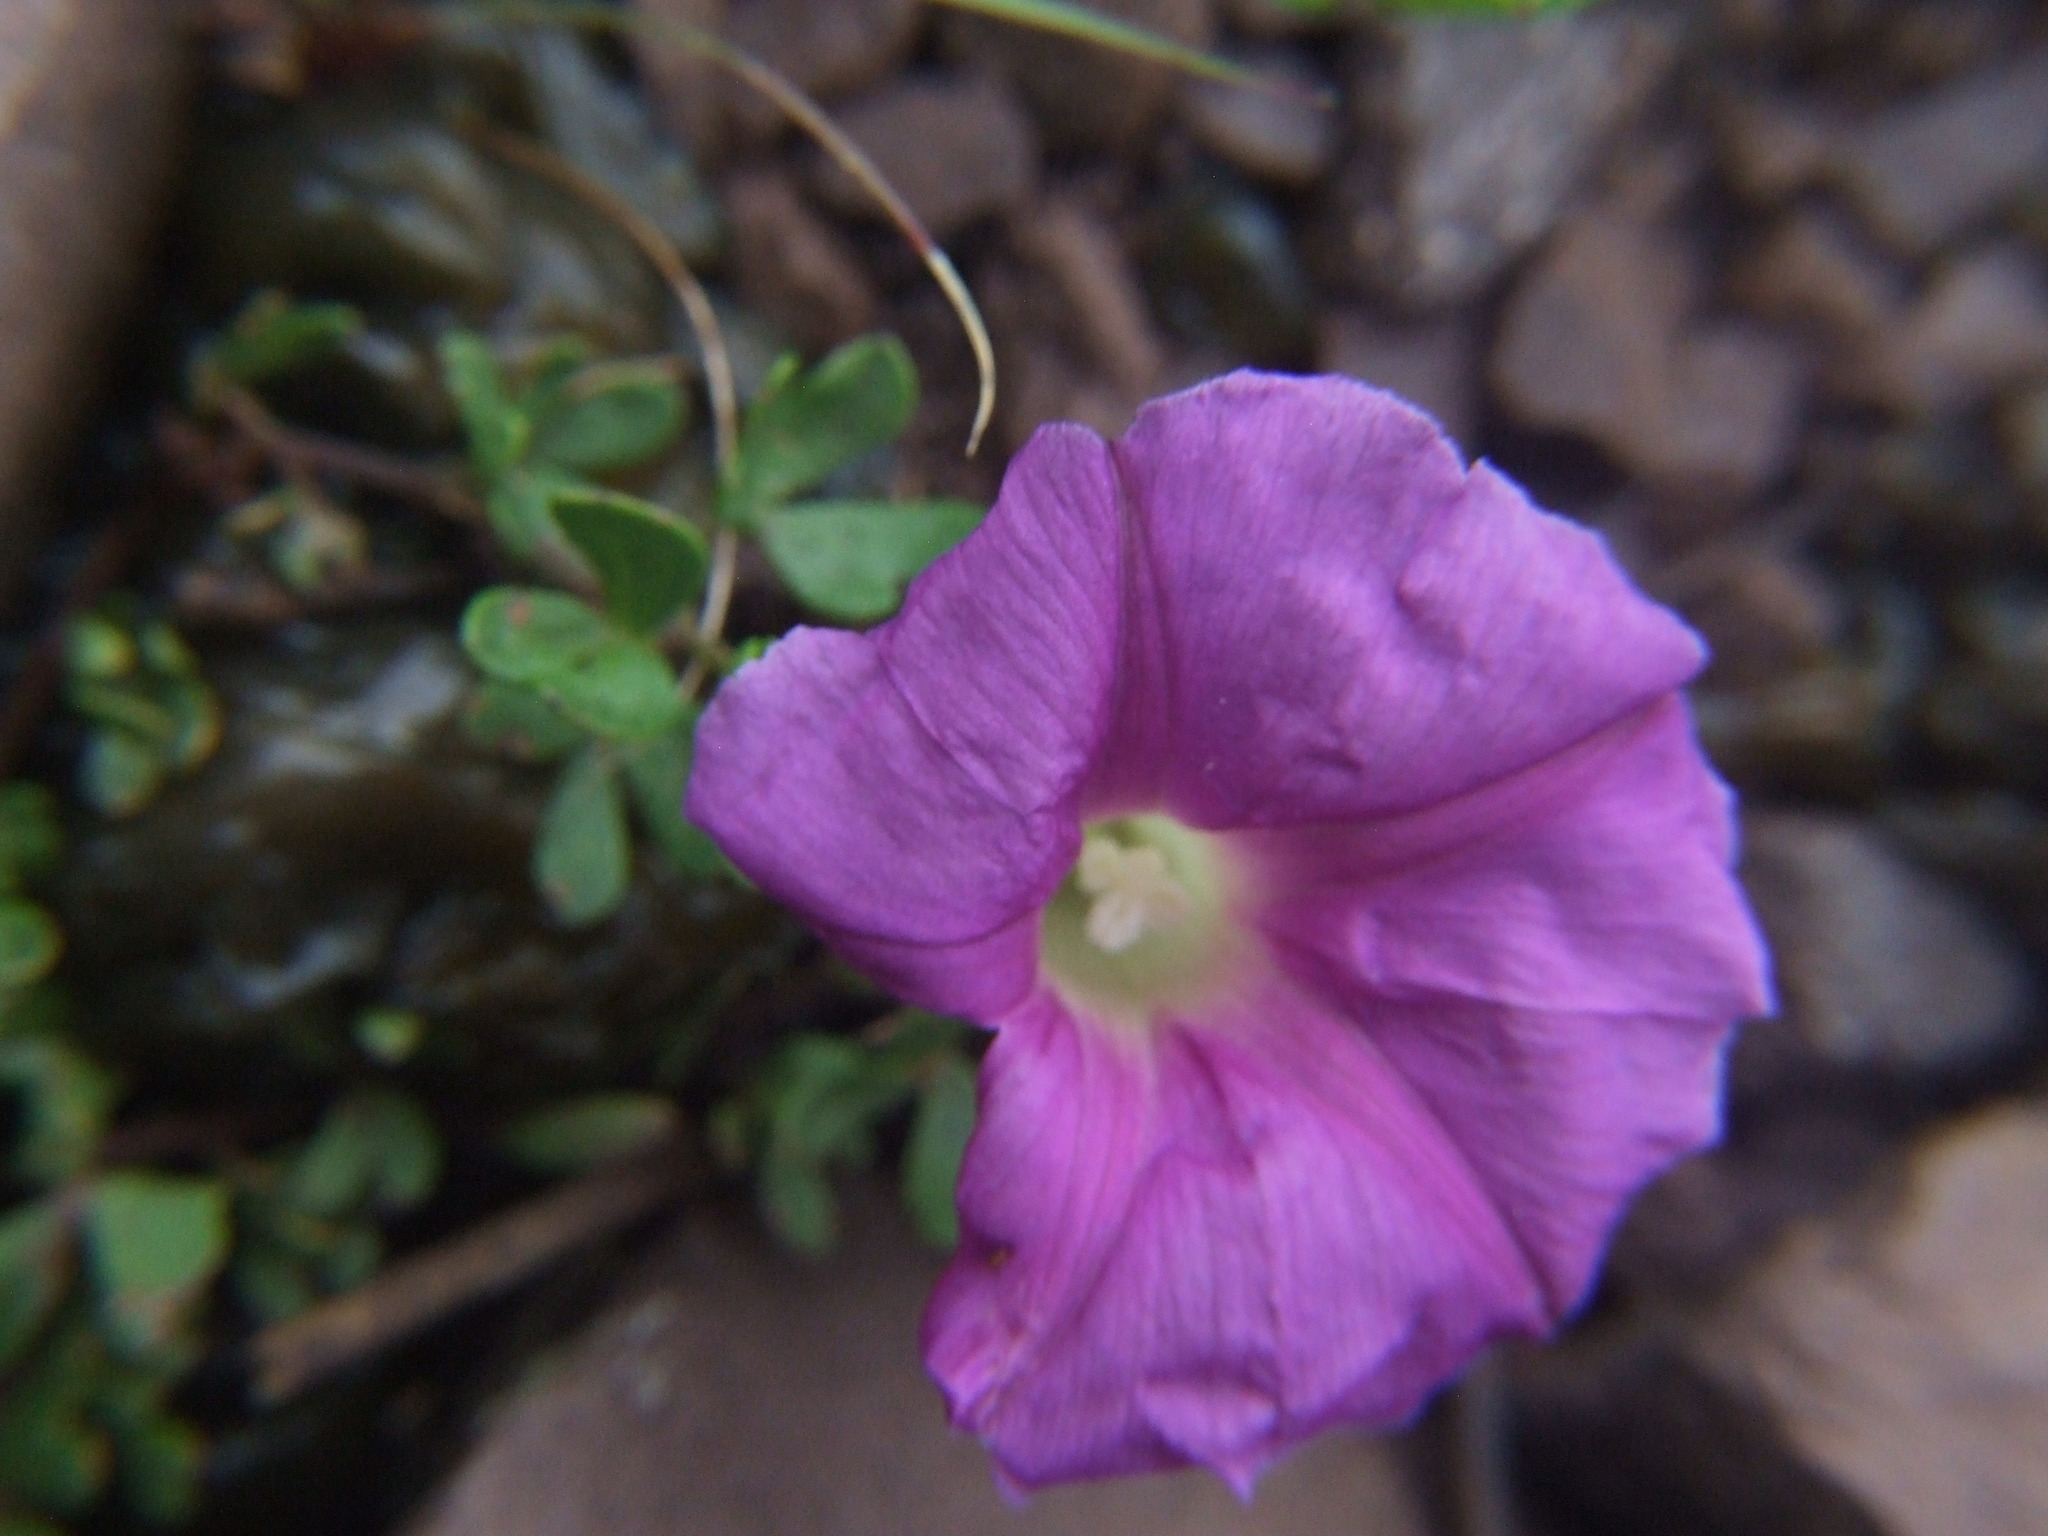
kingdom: Plantae
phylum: Tracheophyta
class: Magnoliopsida
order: Solanales
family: Convolvulaceae
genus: Ipomoea
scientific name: Ipomoea plummerae
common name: Plummer's morning-glory
